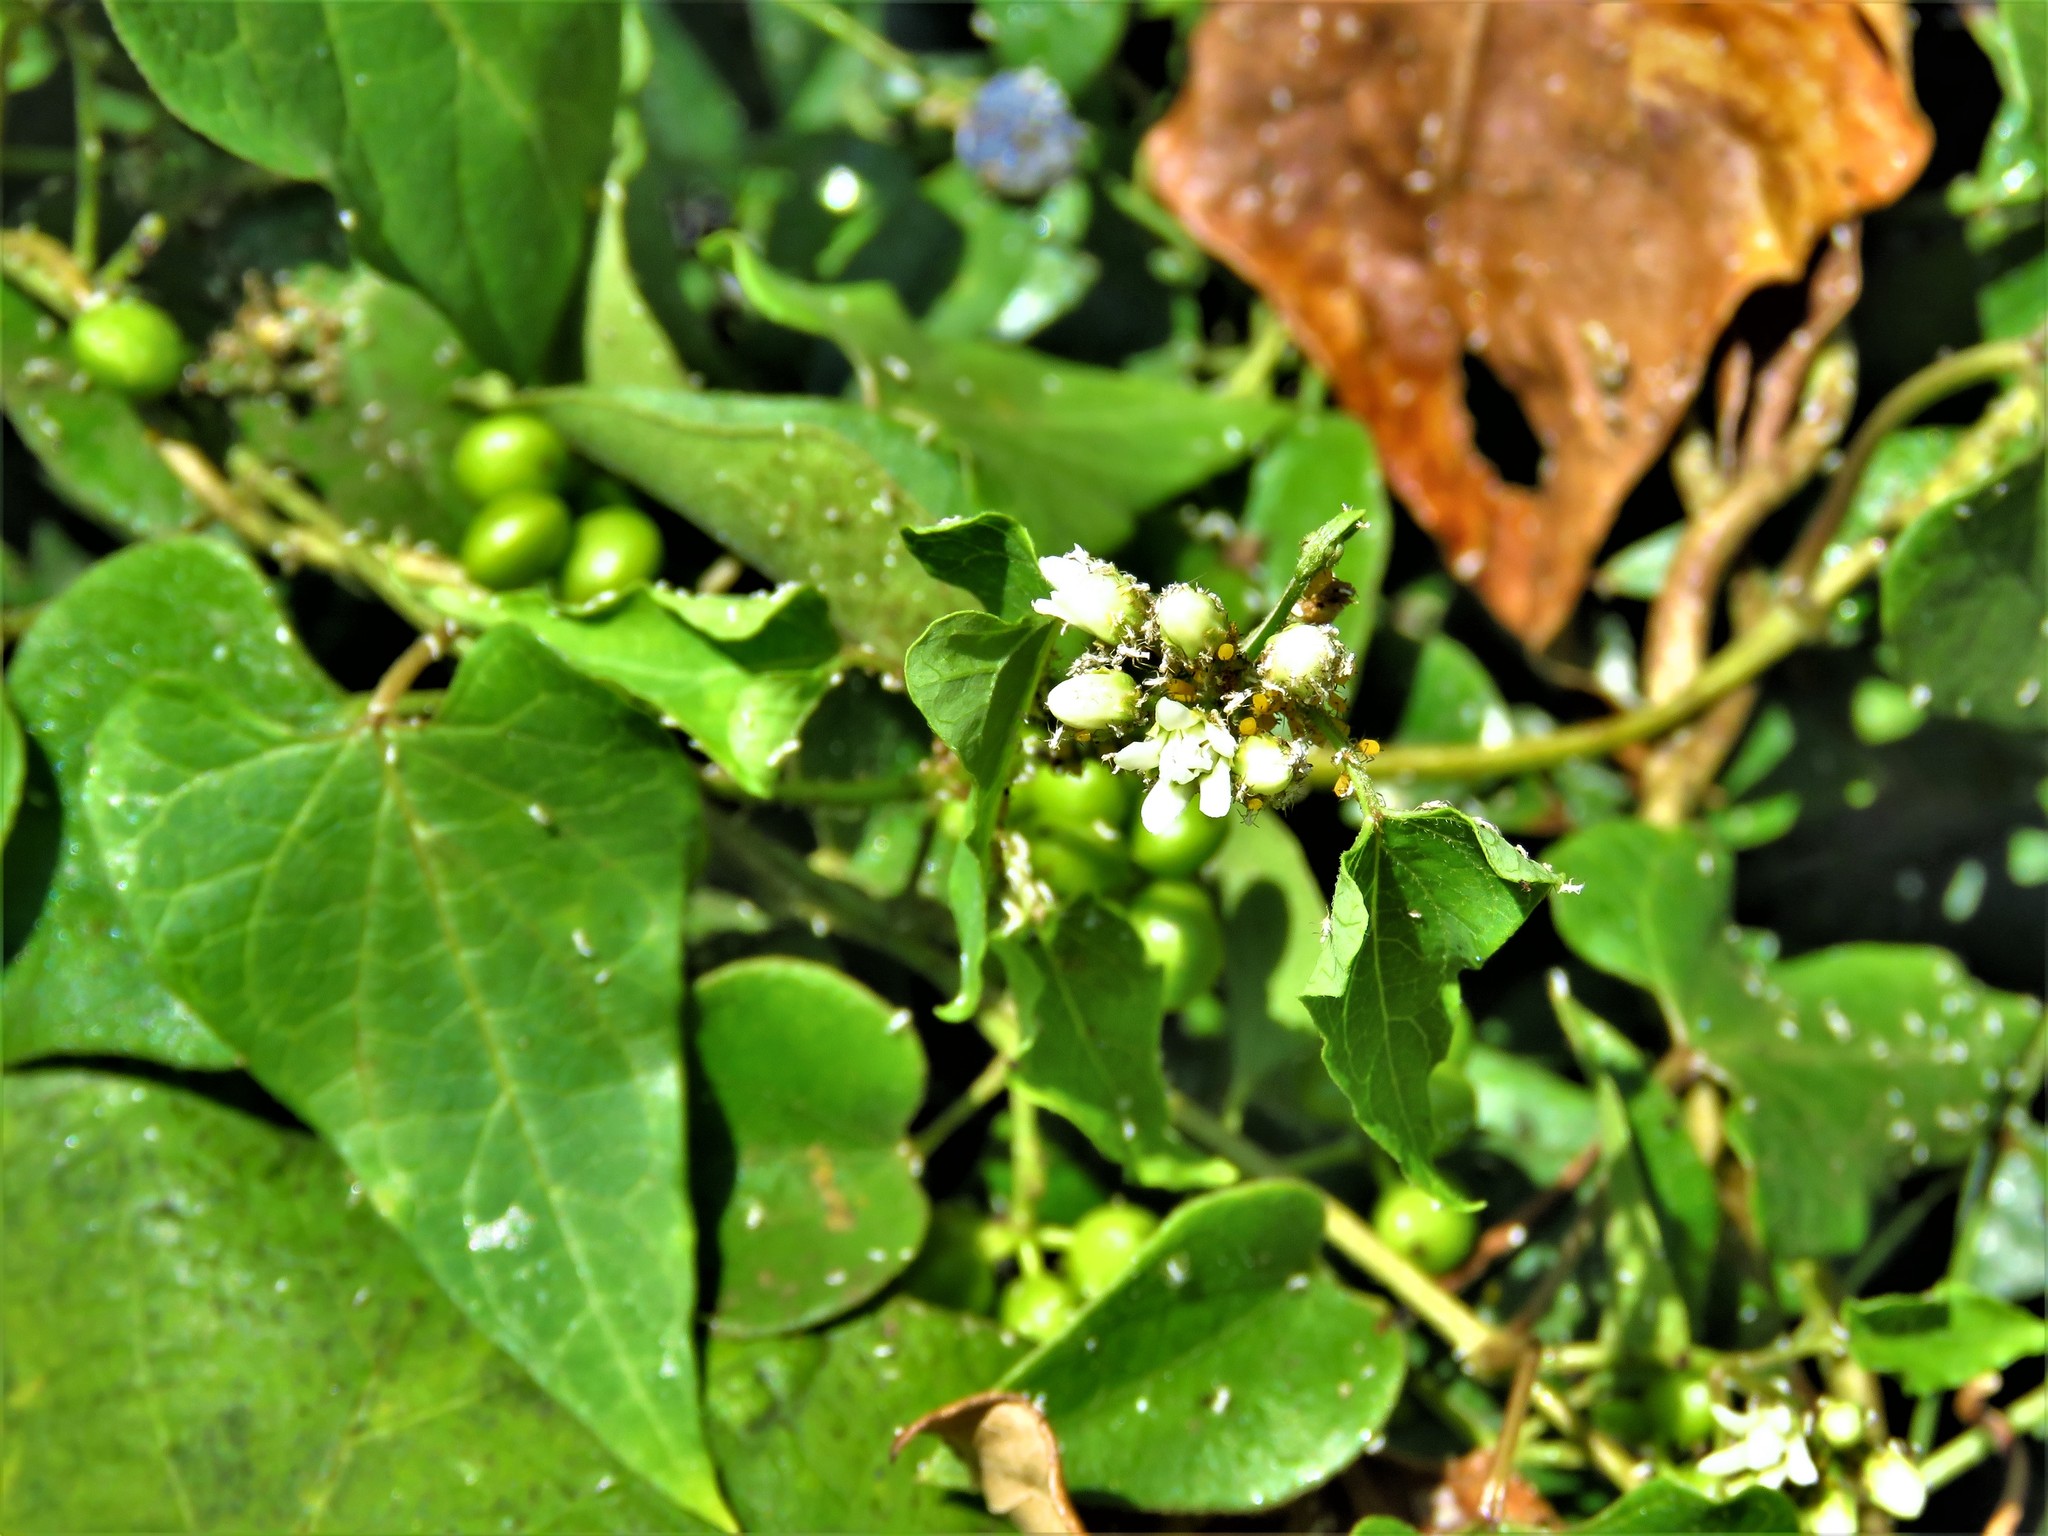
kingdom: Plantae
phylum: Tracheophyta
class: Magnoliopsida
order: Gentianales
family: Apocynaceae
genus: Cynanchum
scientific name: Cynanchum laeve
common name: Sandvine
